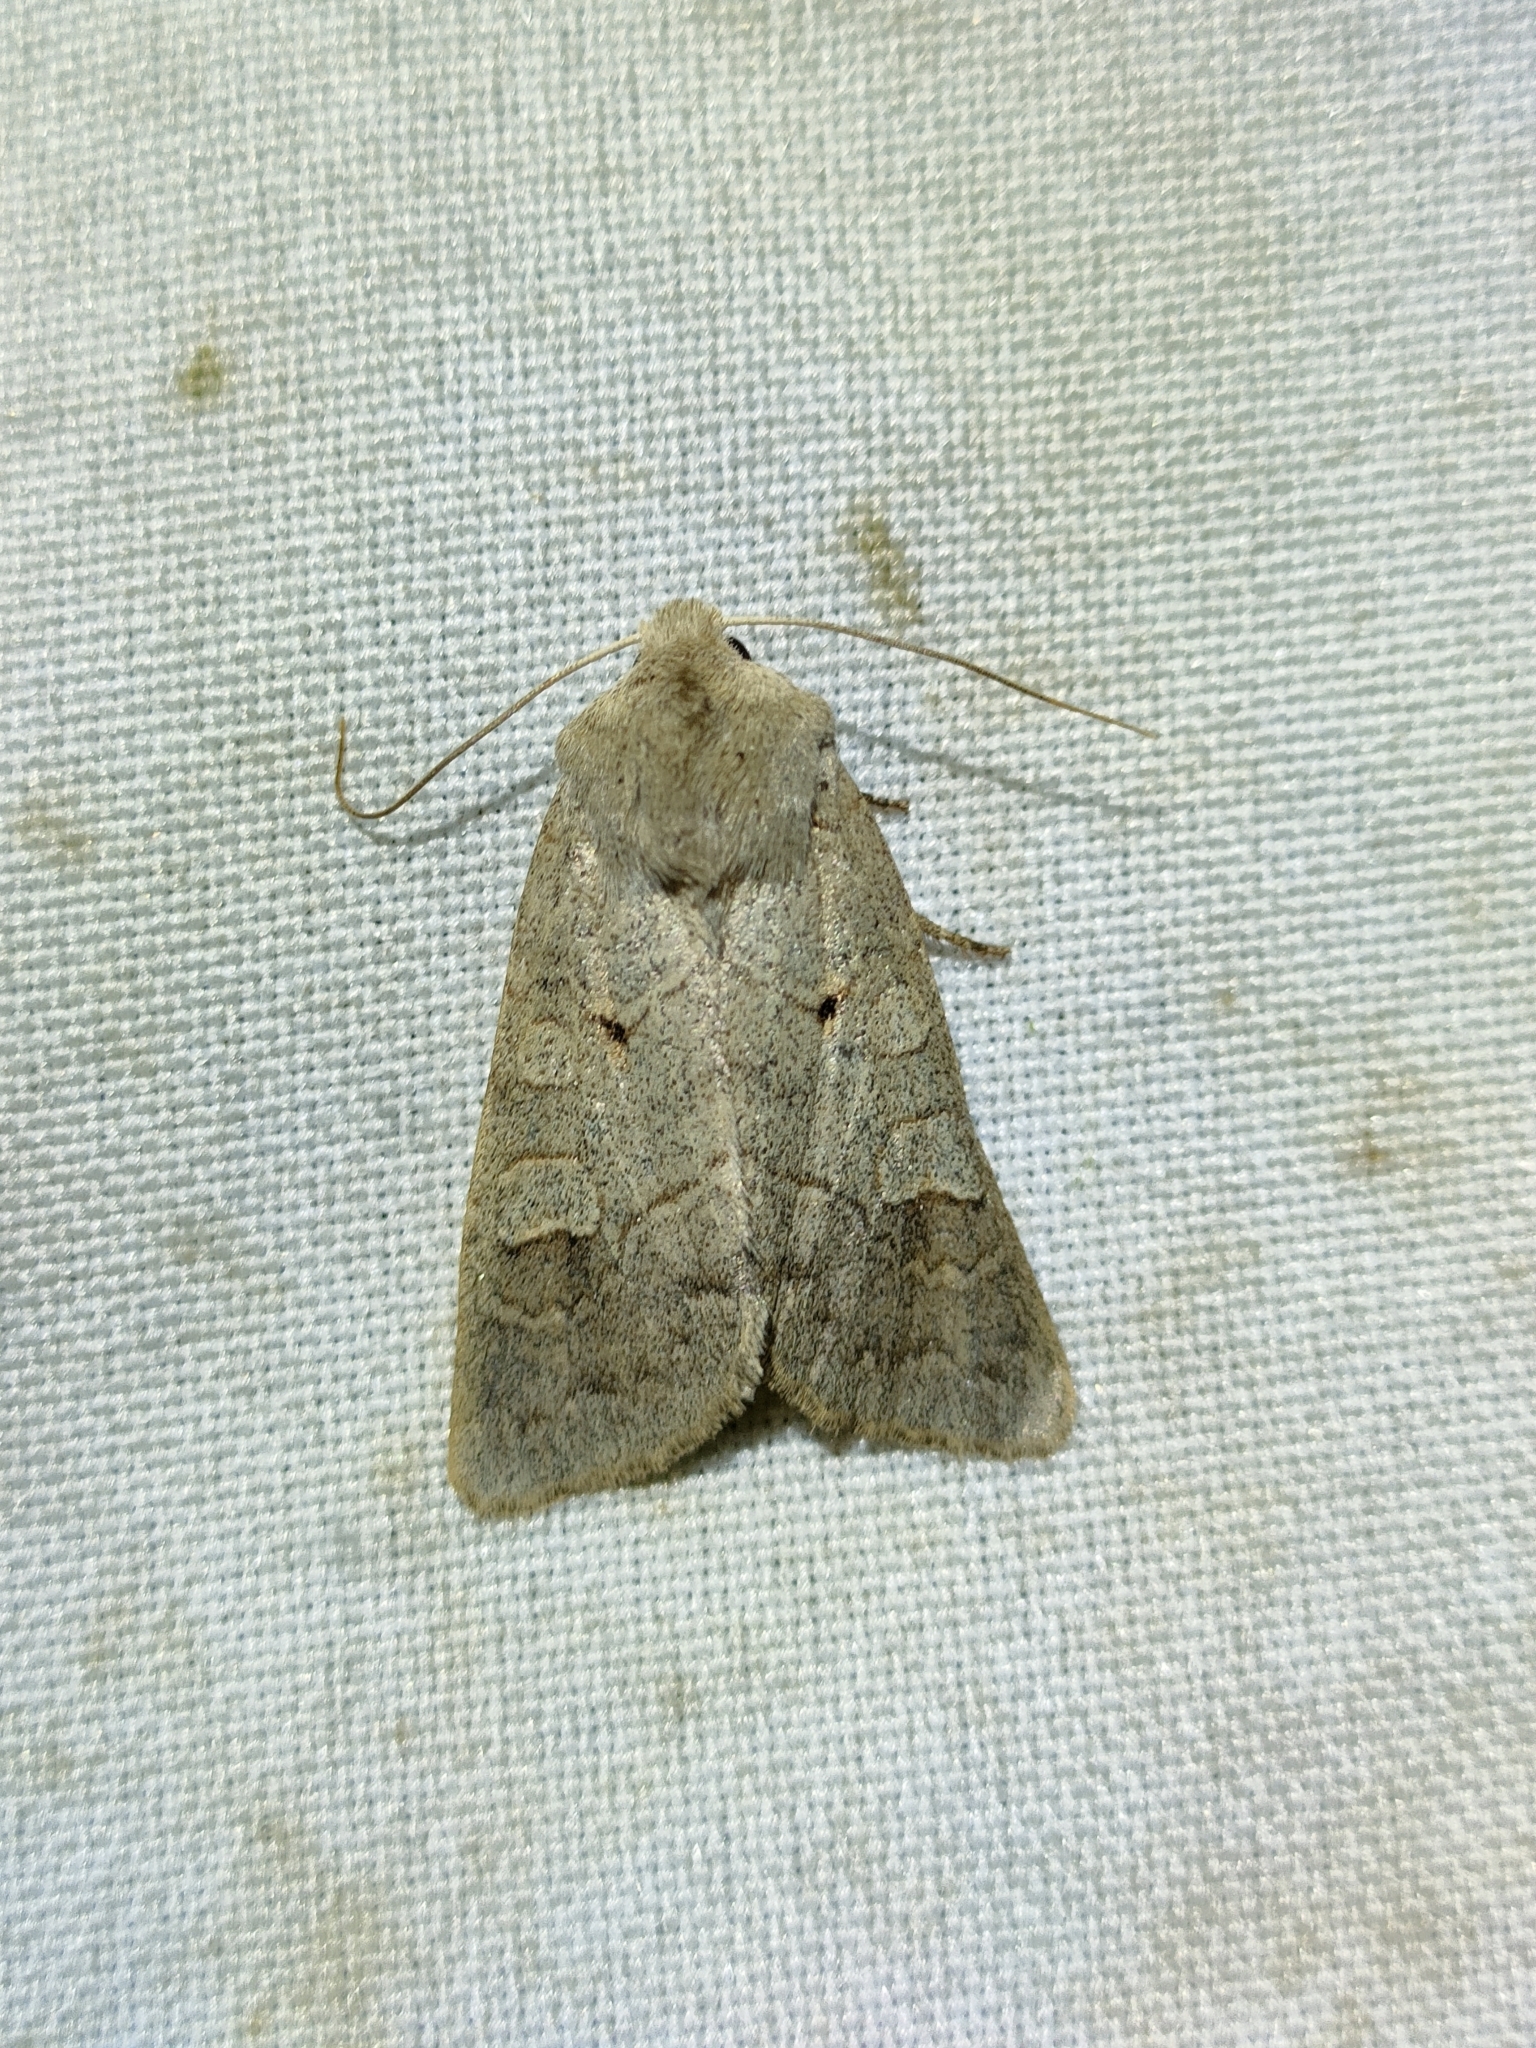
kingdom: Animalia
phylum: Arthropoda
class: Insecta
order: Lepidoptera
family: Noctuidae
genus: Ammoconia
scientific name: Ammoconia caecimacula
